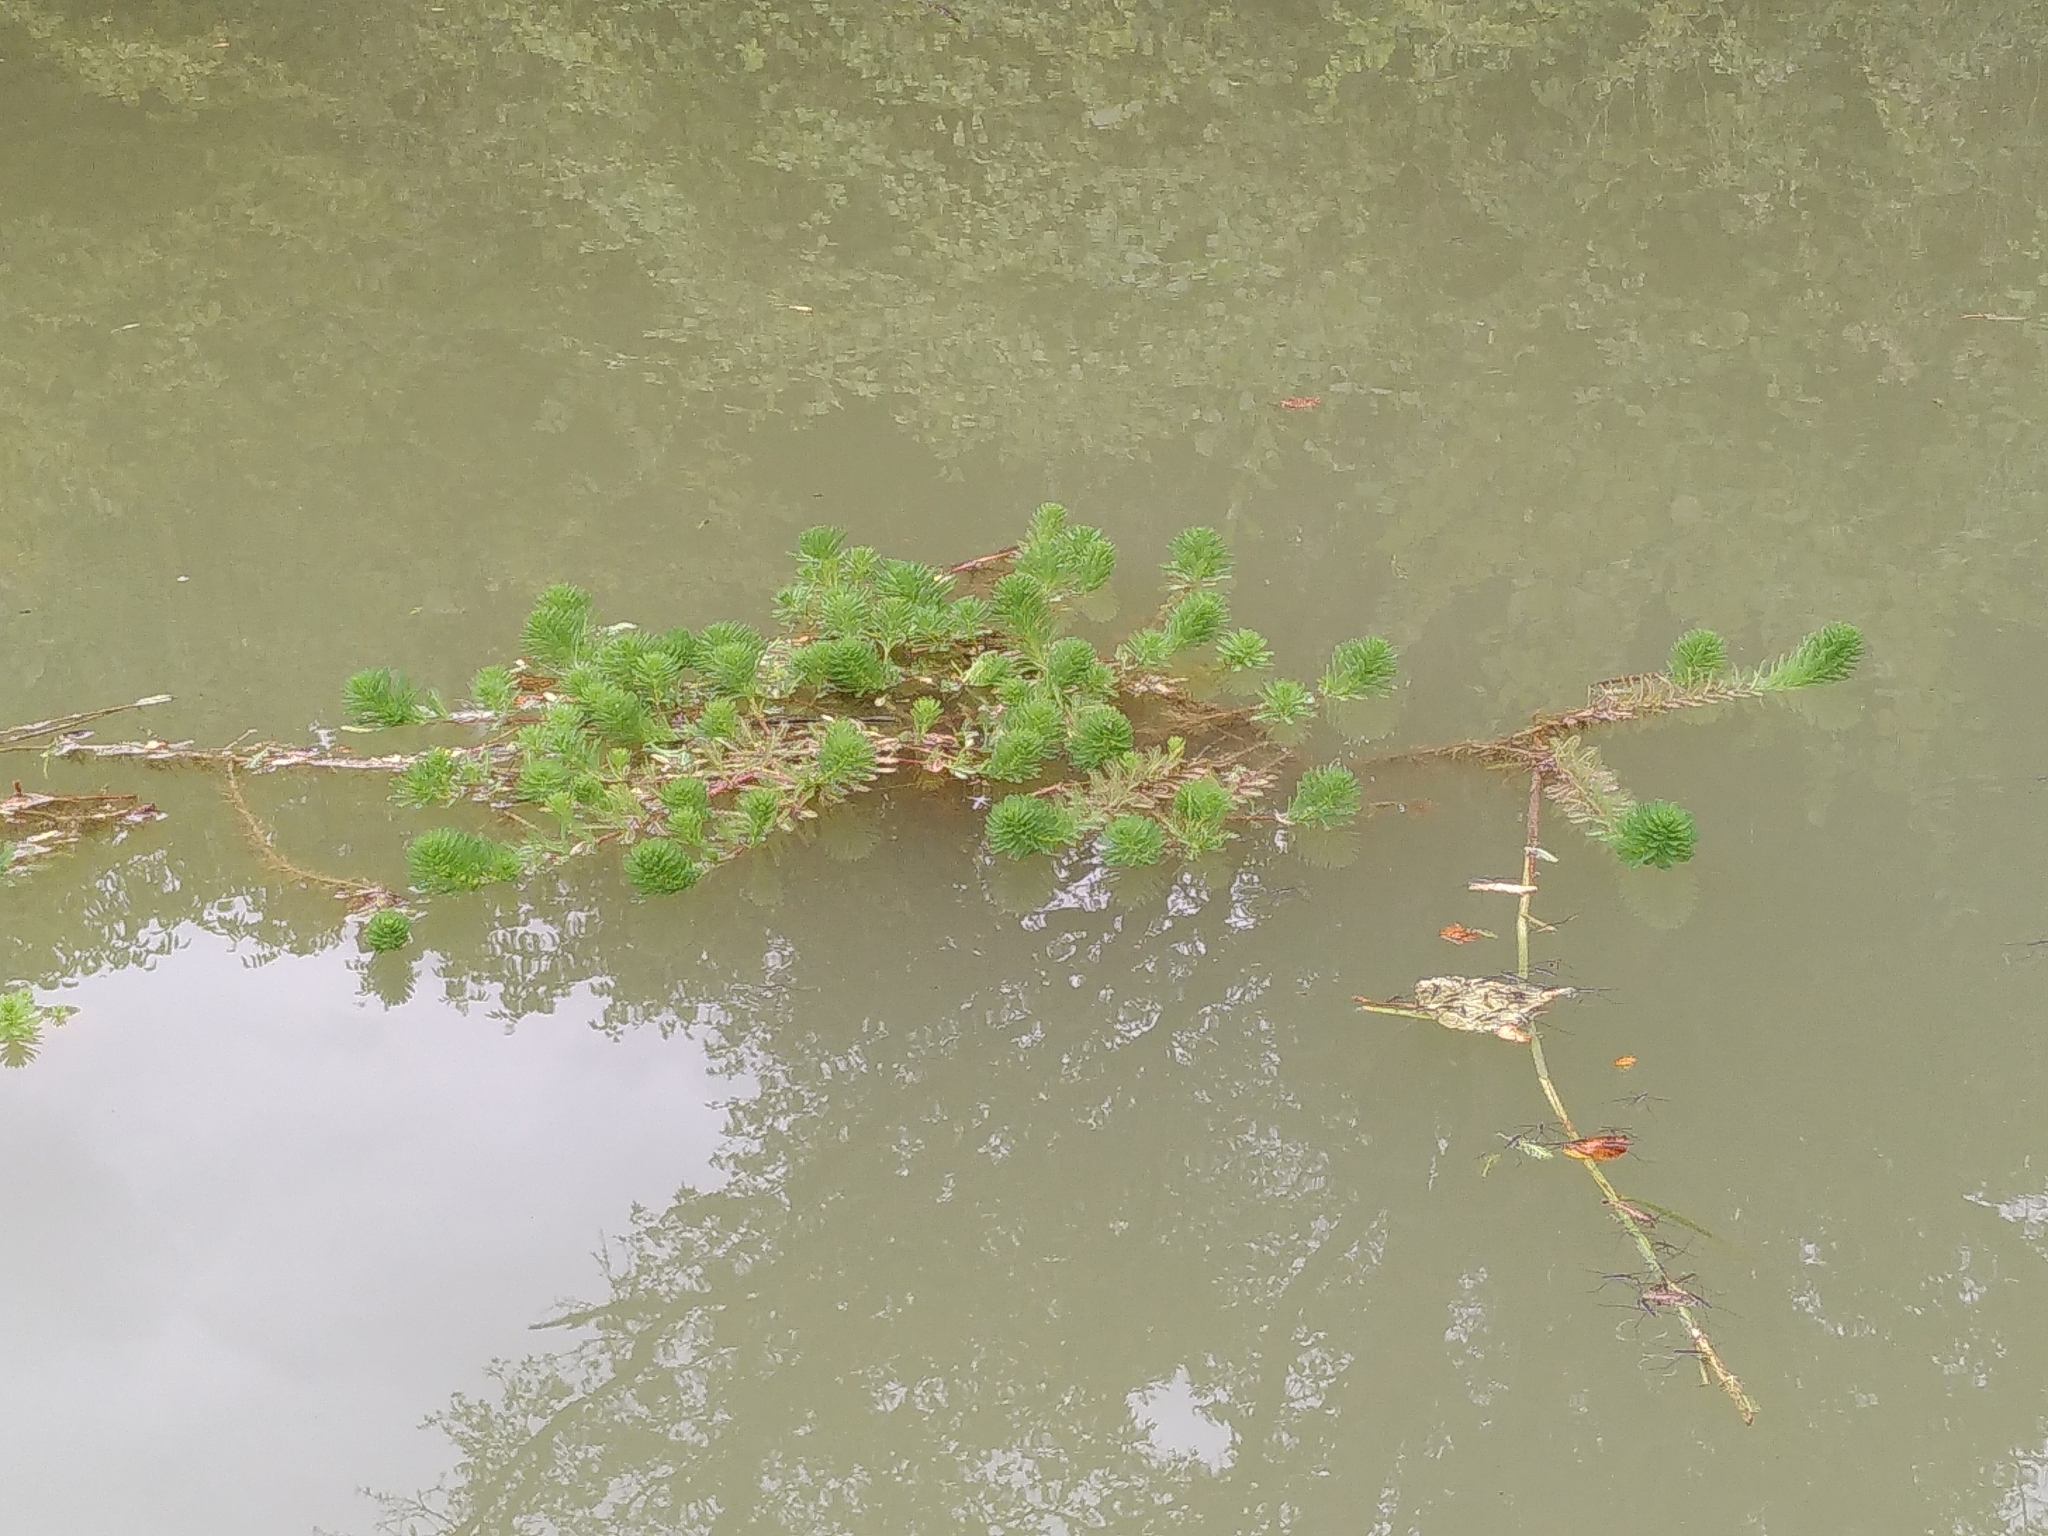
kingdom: Plantae
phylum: Tracheophyta
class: Magnoliopsida
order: Saxifragales
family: Haloragaceae
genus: Myriophyllum
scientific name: Myriophyllum aquaticum
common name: Parrot's feather
